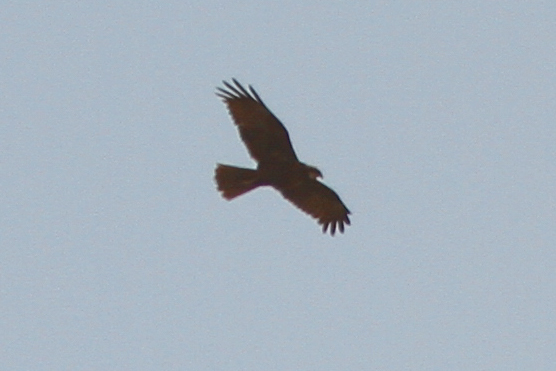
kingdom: Animalia
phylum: Chordata
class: Aves
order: Accipitriformes
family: Accipitridae
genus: Circus
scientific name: Circus aeruginosus
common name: Western marsh harrier
